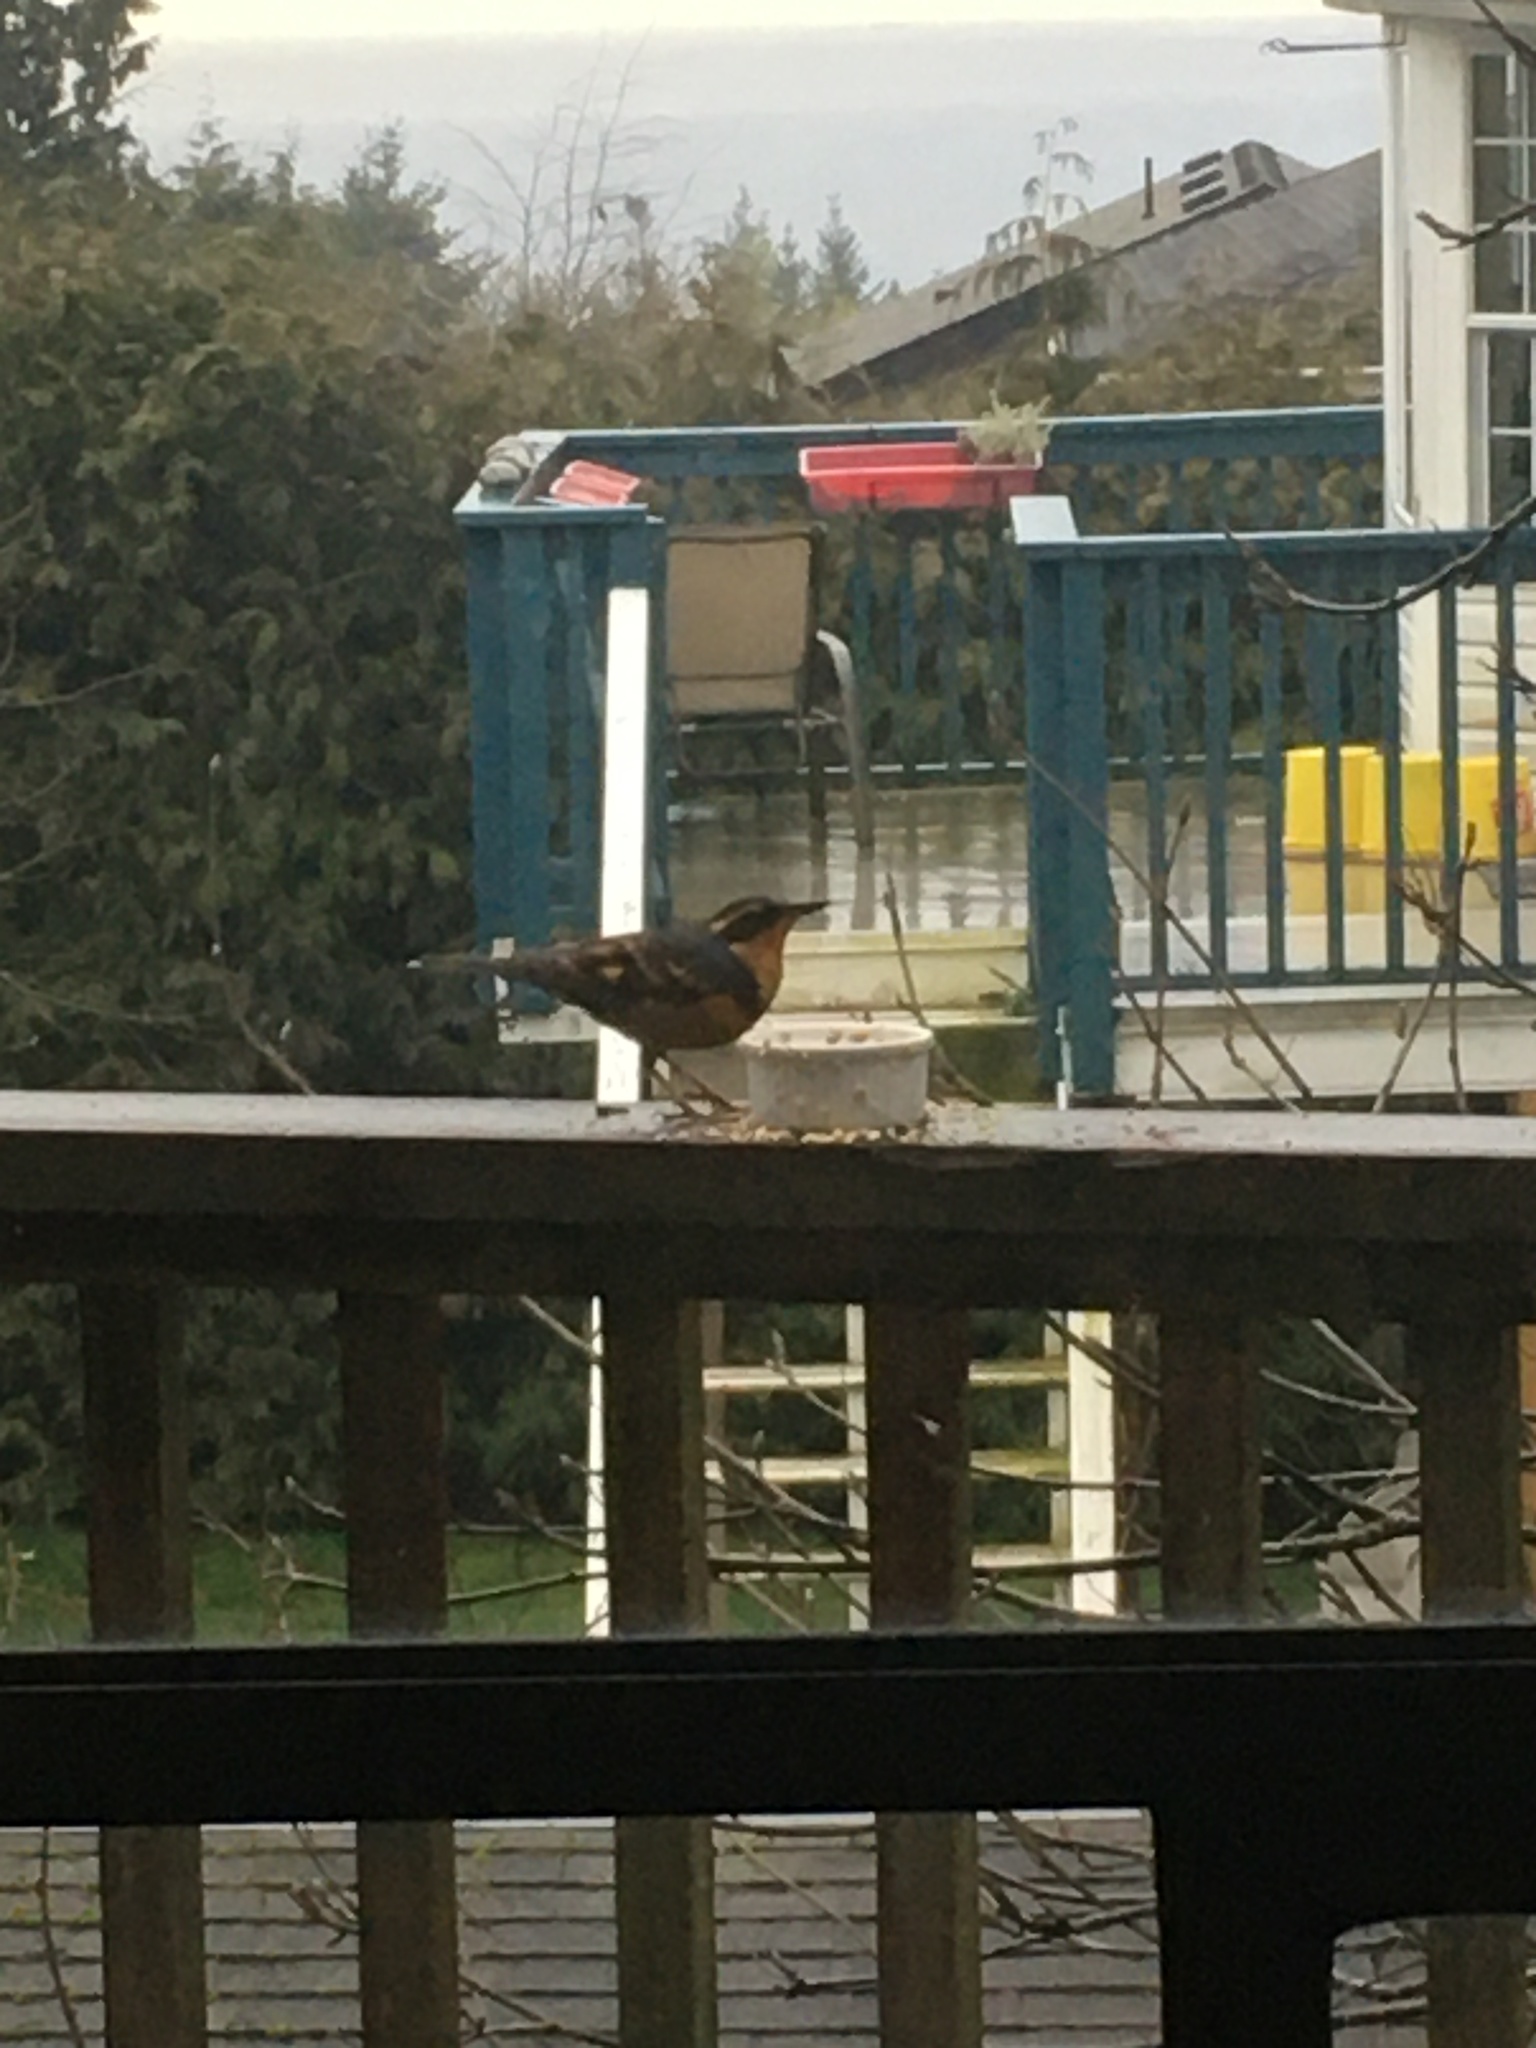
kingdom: Animalia
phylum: Chordata
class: Aves
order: Passeriformes
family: Turdidae
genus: Ixoreus
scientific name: Ixoreus naevius
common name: Varied thrush
